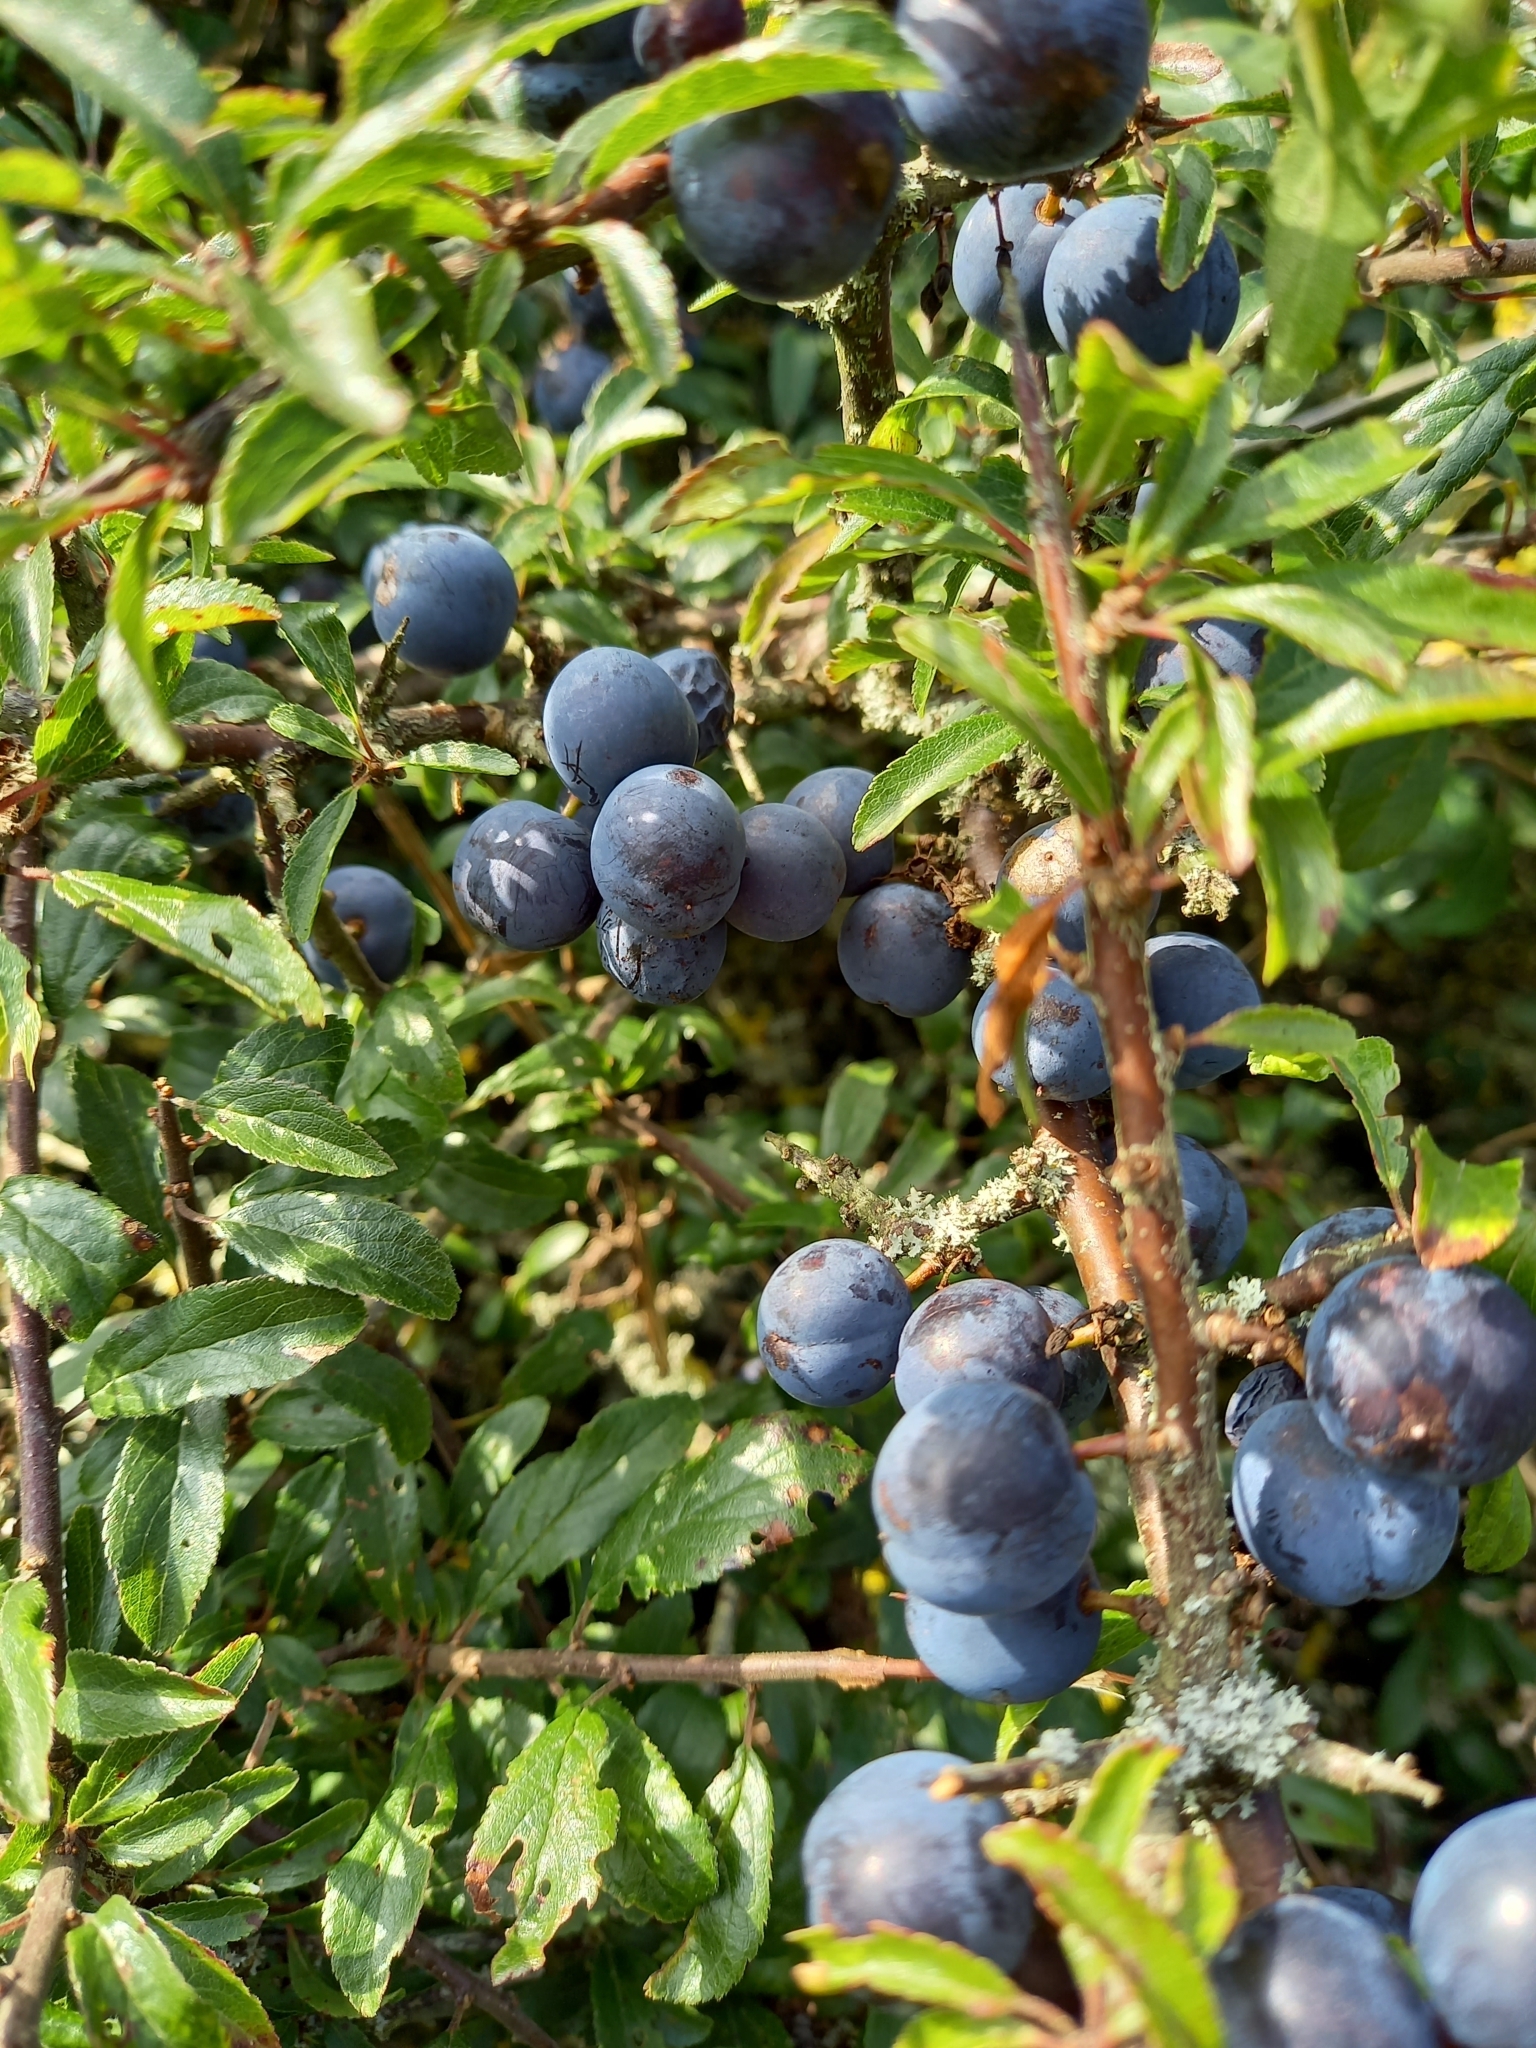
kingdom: Plantae
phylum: Tracheophyta
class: Magnoliopsida
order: Rosales
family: Rosaceae
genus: Prunus
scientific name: Prunus spinosa
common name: Blackthorn
